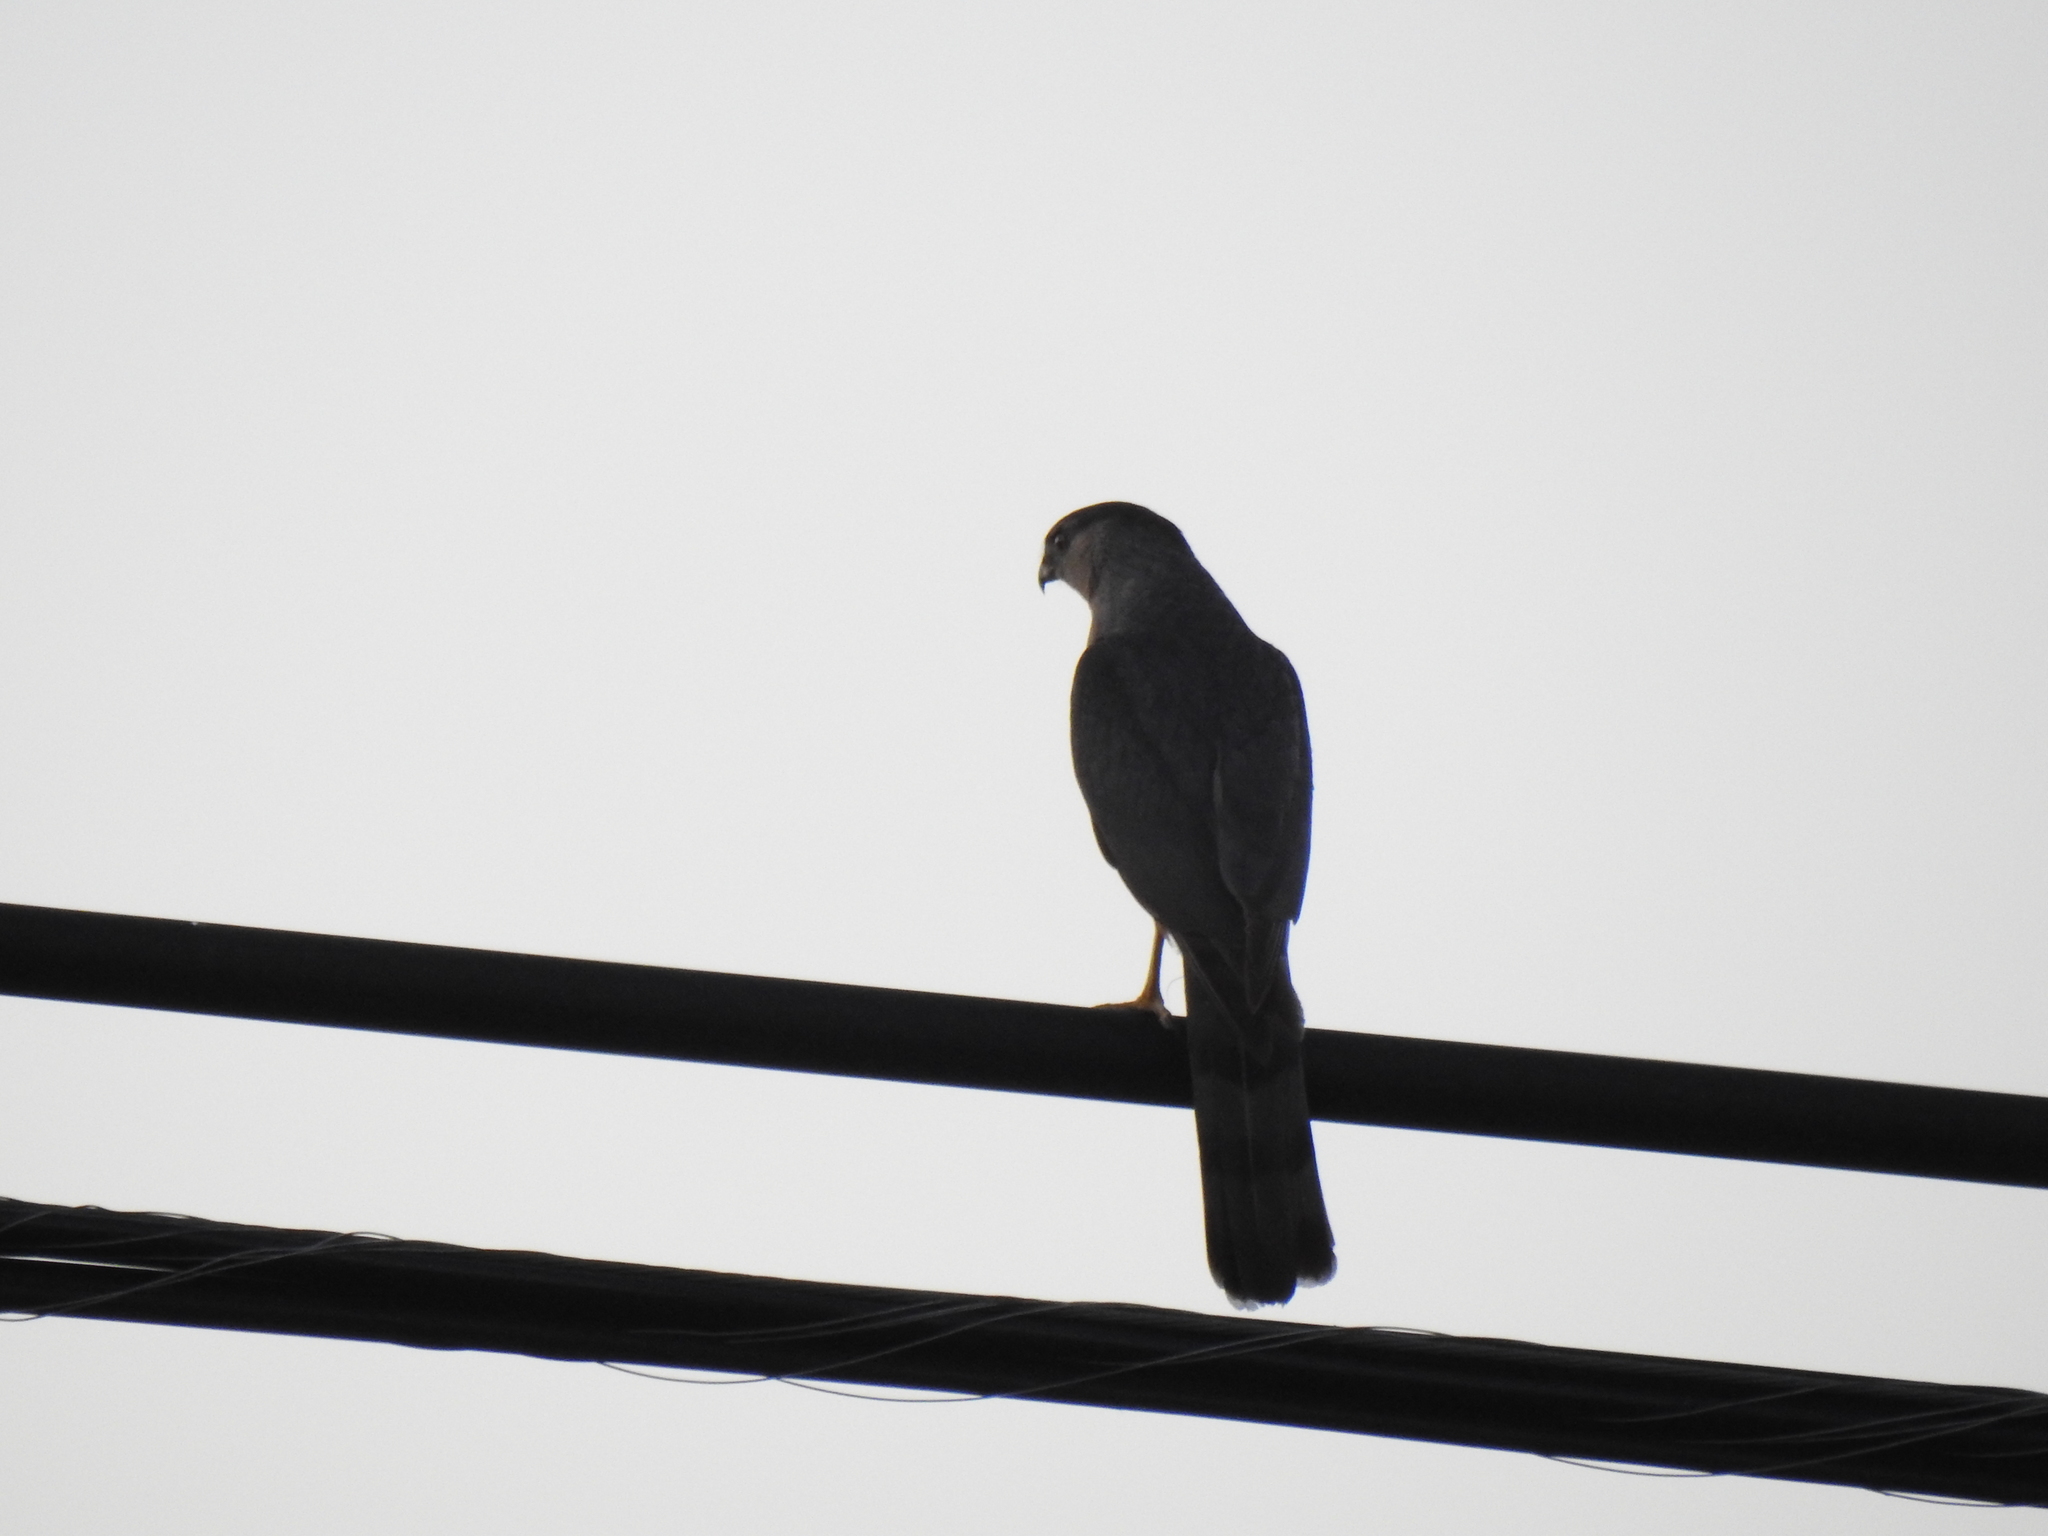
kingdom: Animalia
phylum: Chordata
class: Aves
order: Accipitriformes
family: Accipitridae
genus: Accipiter
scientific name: Accipiter cooperii
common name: Cooper's hawk
